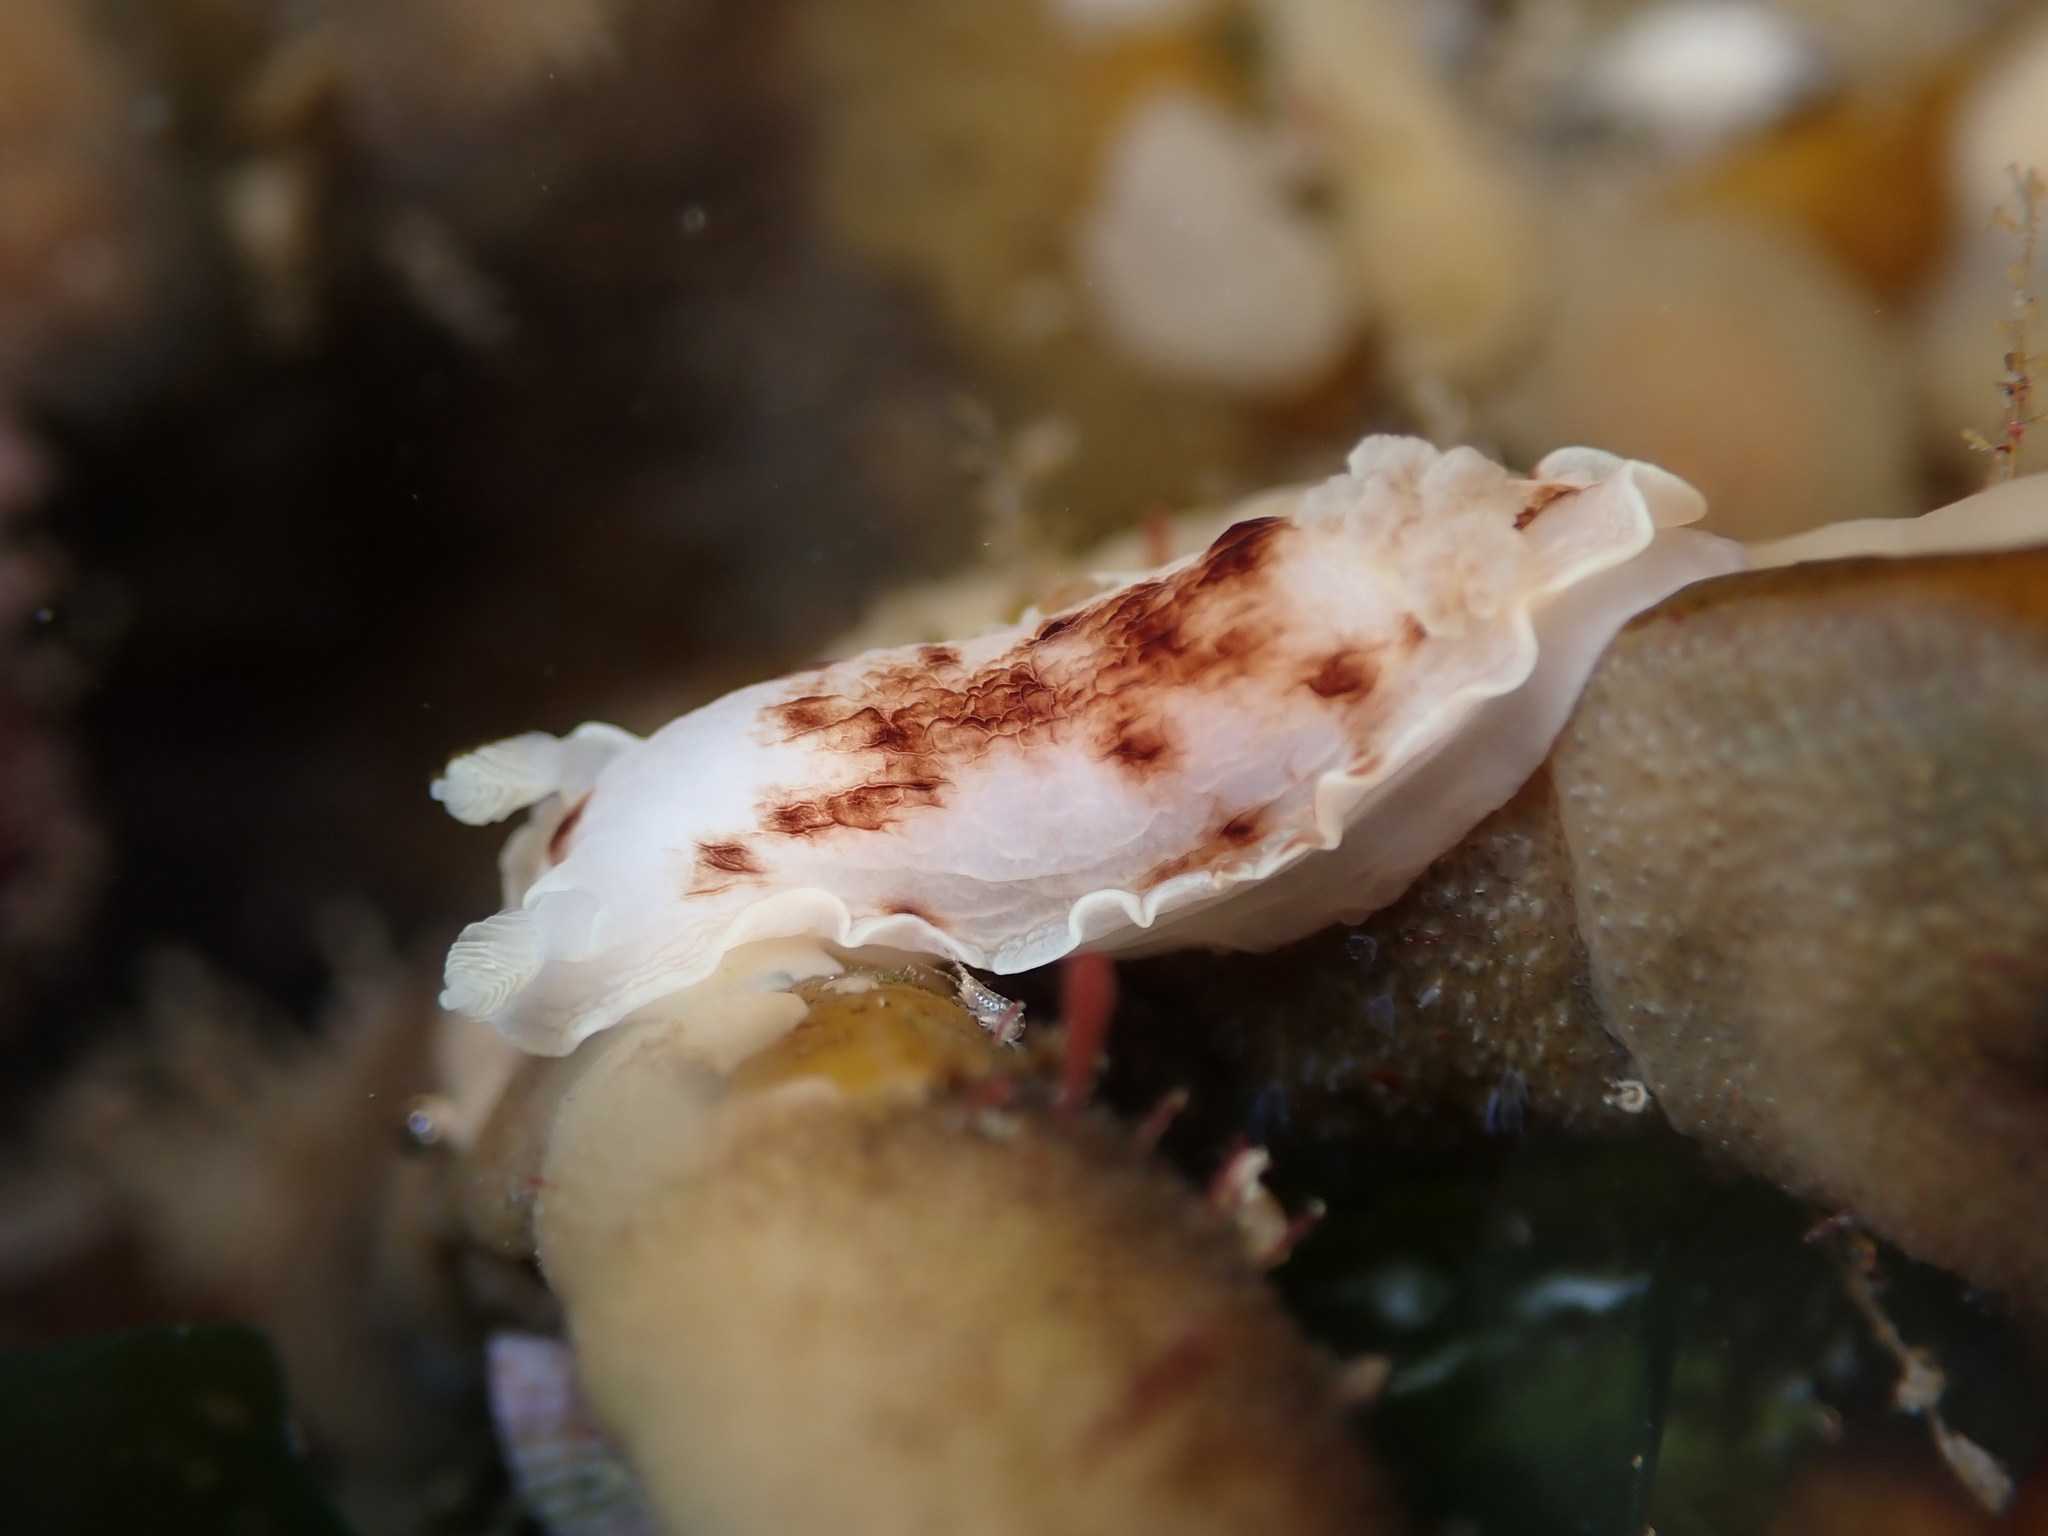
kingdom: Animalia
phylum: Mollusca
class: Gastropoda
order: Nudibranchia
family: Dorididae
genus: Aphelodoris
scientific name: Aphelodoris luctuosa
